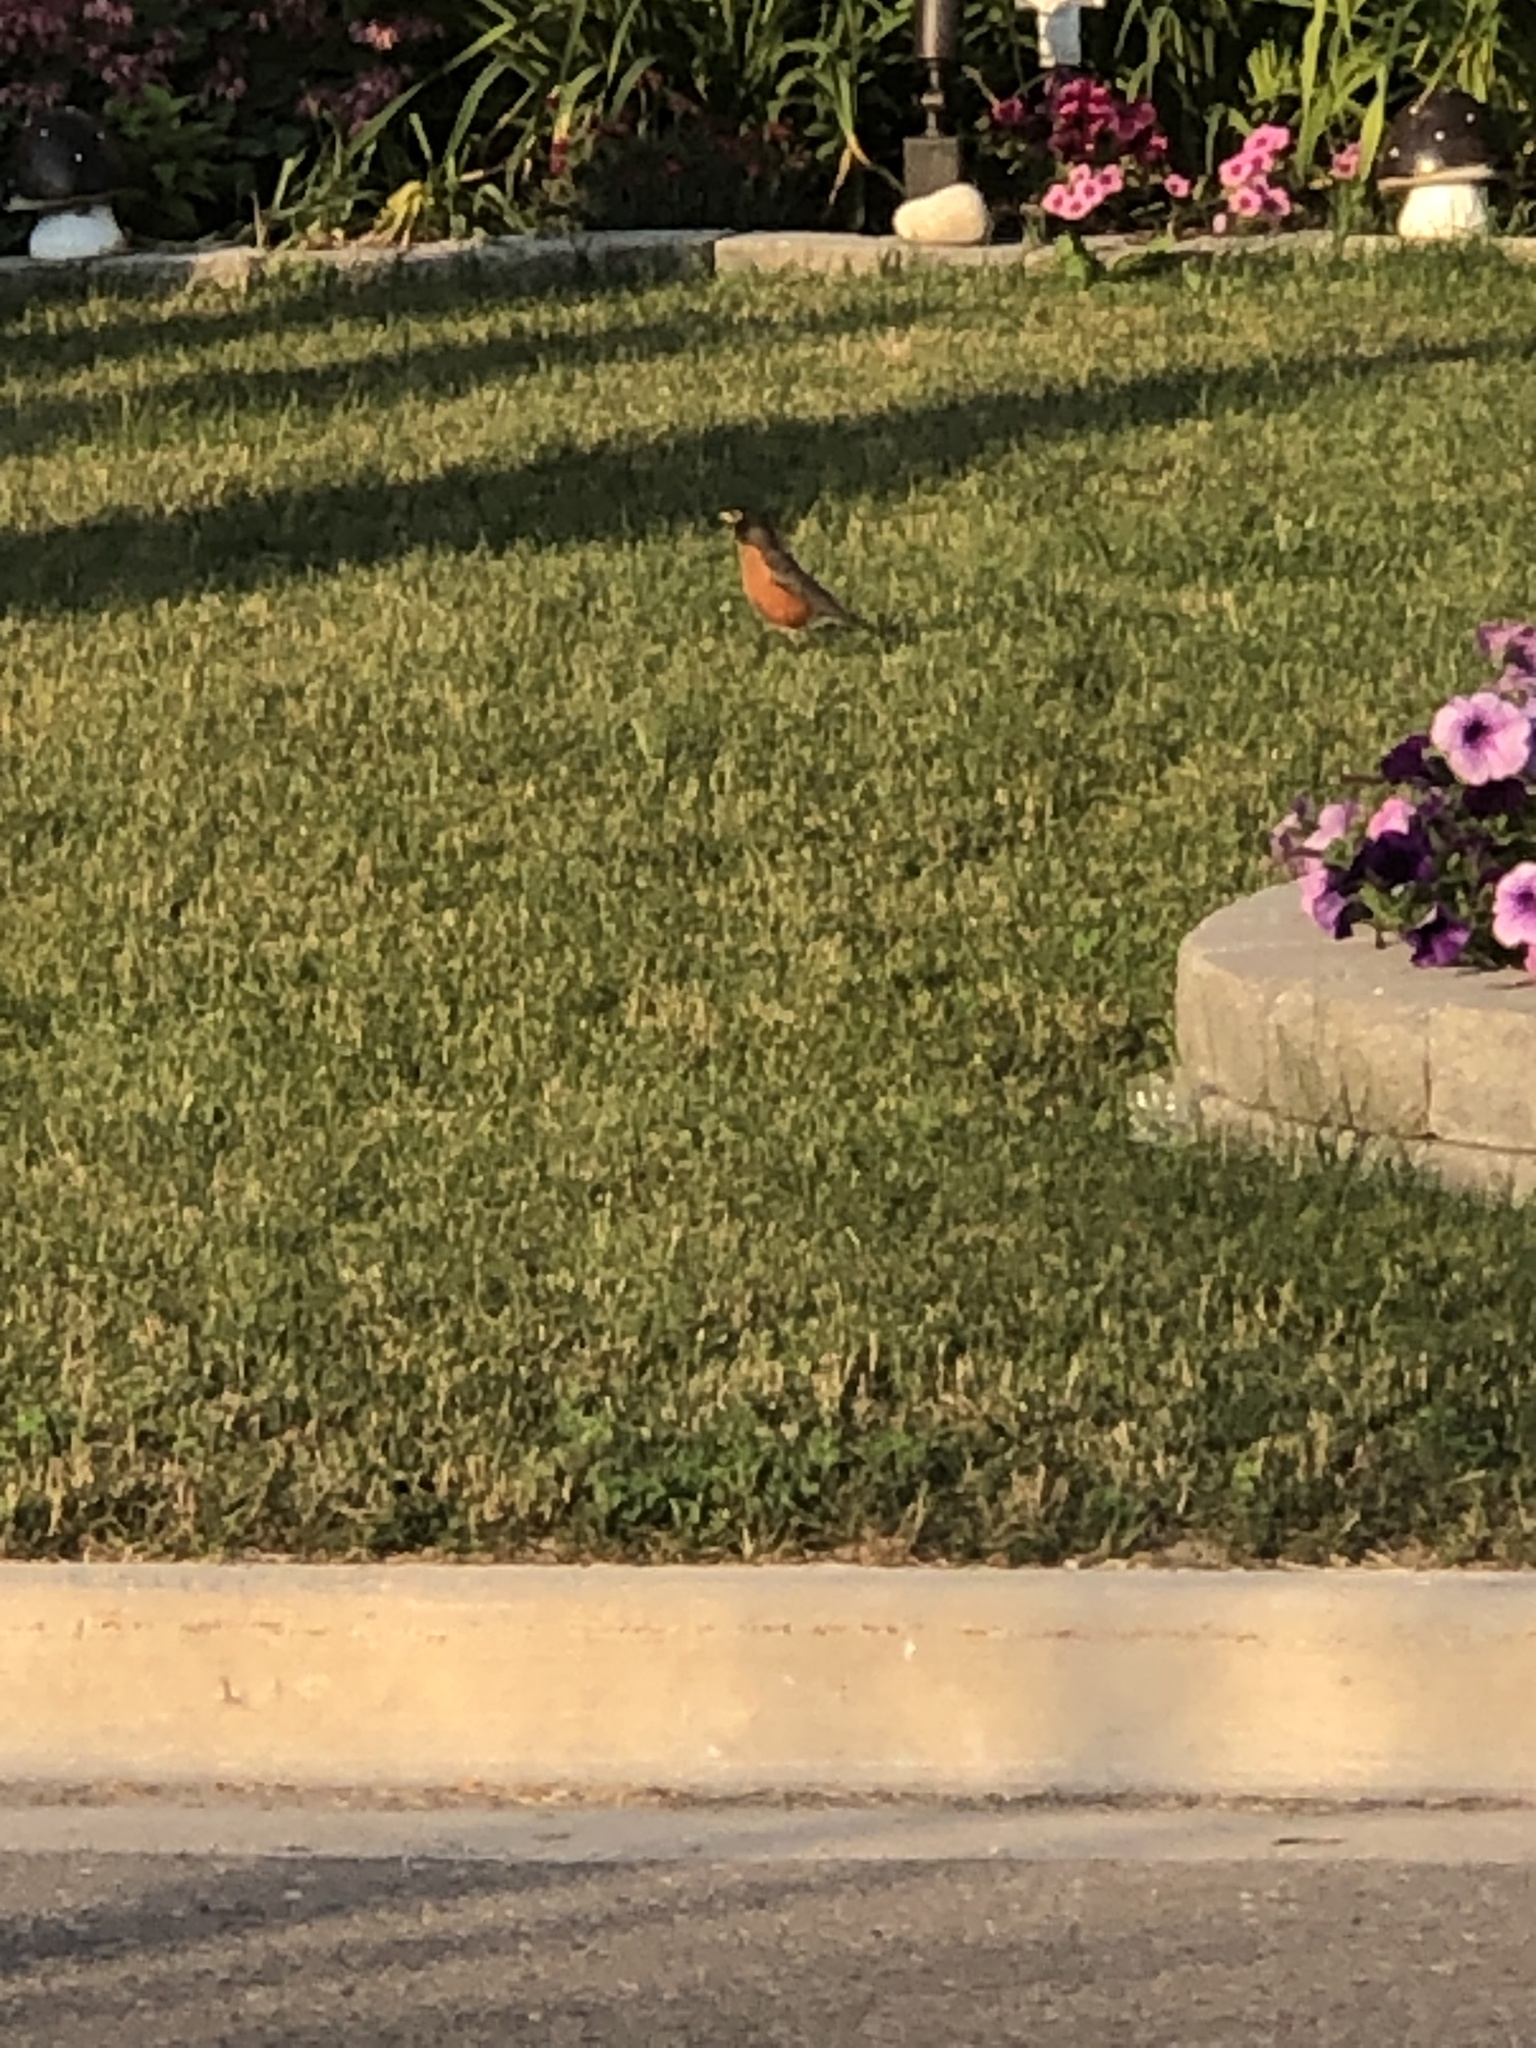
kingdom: Animalia
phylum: Chordata
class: Aves
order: Passeriformes
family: Turdidae
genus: Turdus
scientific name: Turdus migratorius
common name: American robin
